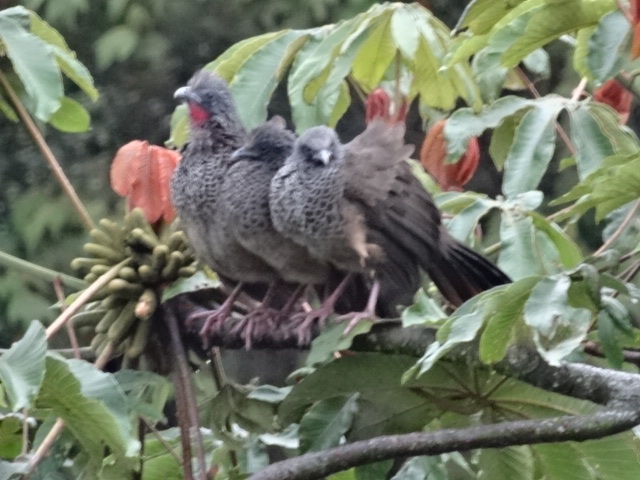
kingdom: Animalia
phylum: Chordata
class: Aves
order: Galliformes
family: Cracidae
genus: Ortalis
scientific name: Ortalis columbiana
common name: Colombian chachalaca
